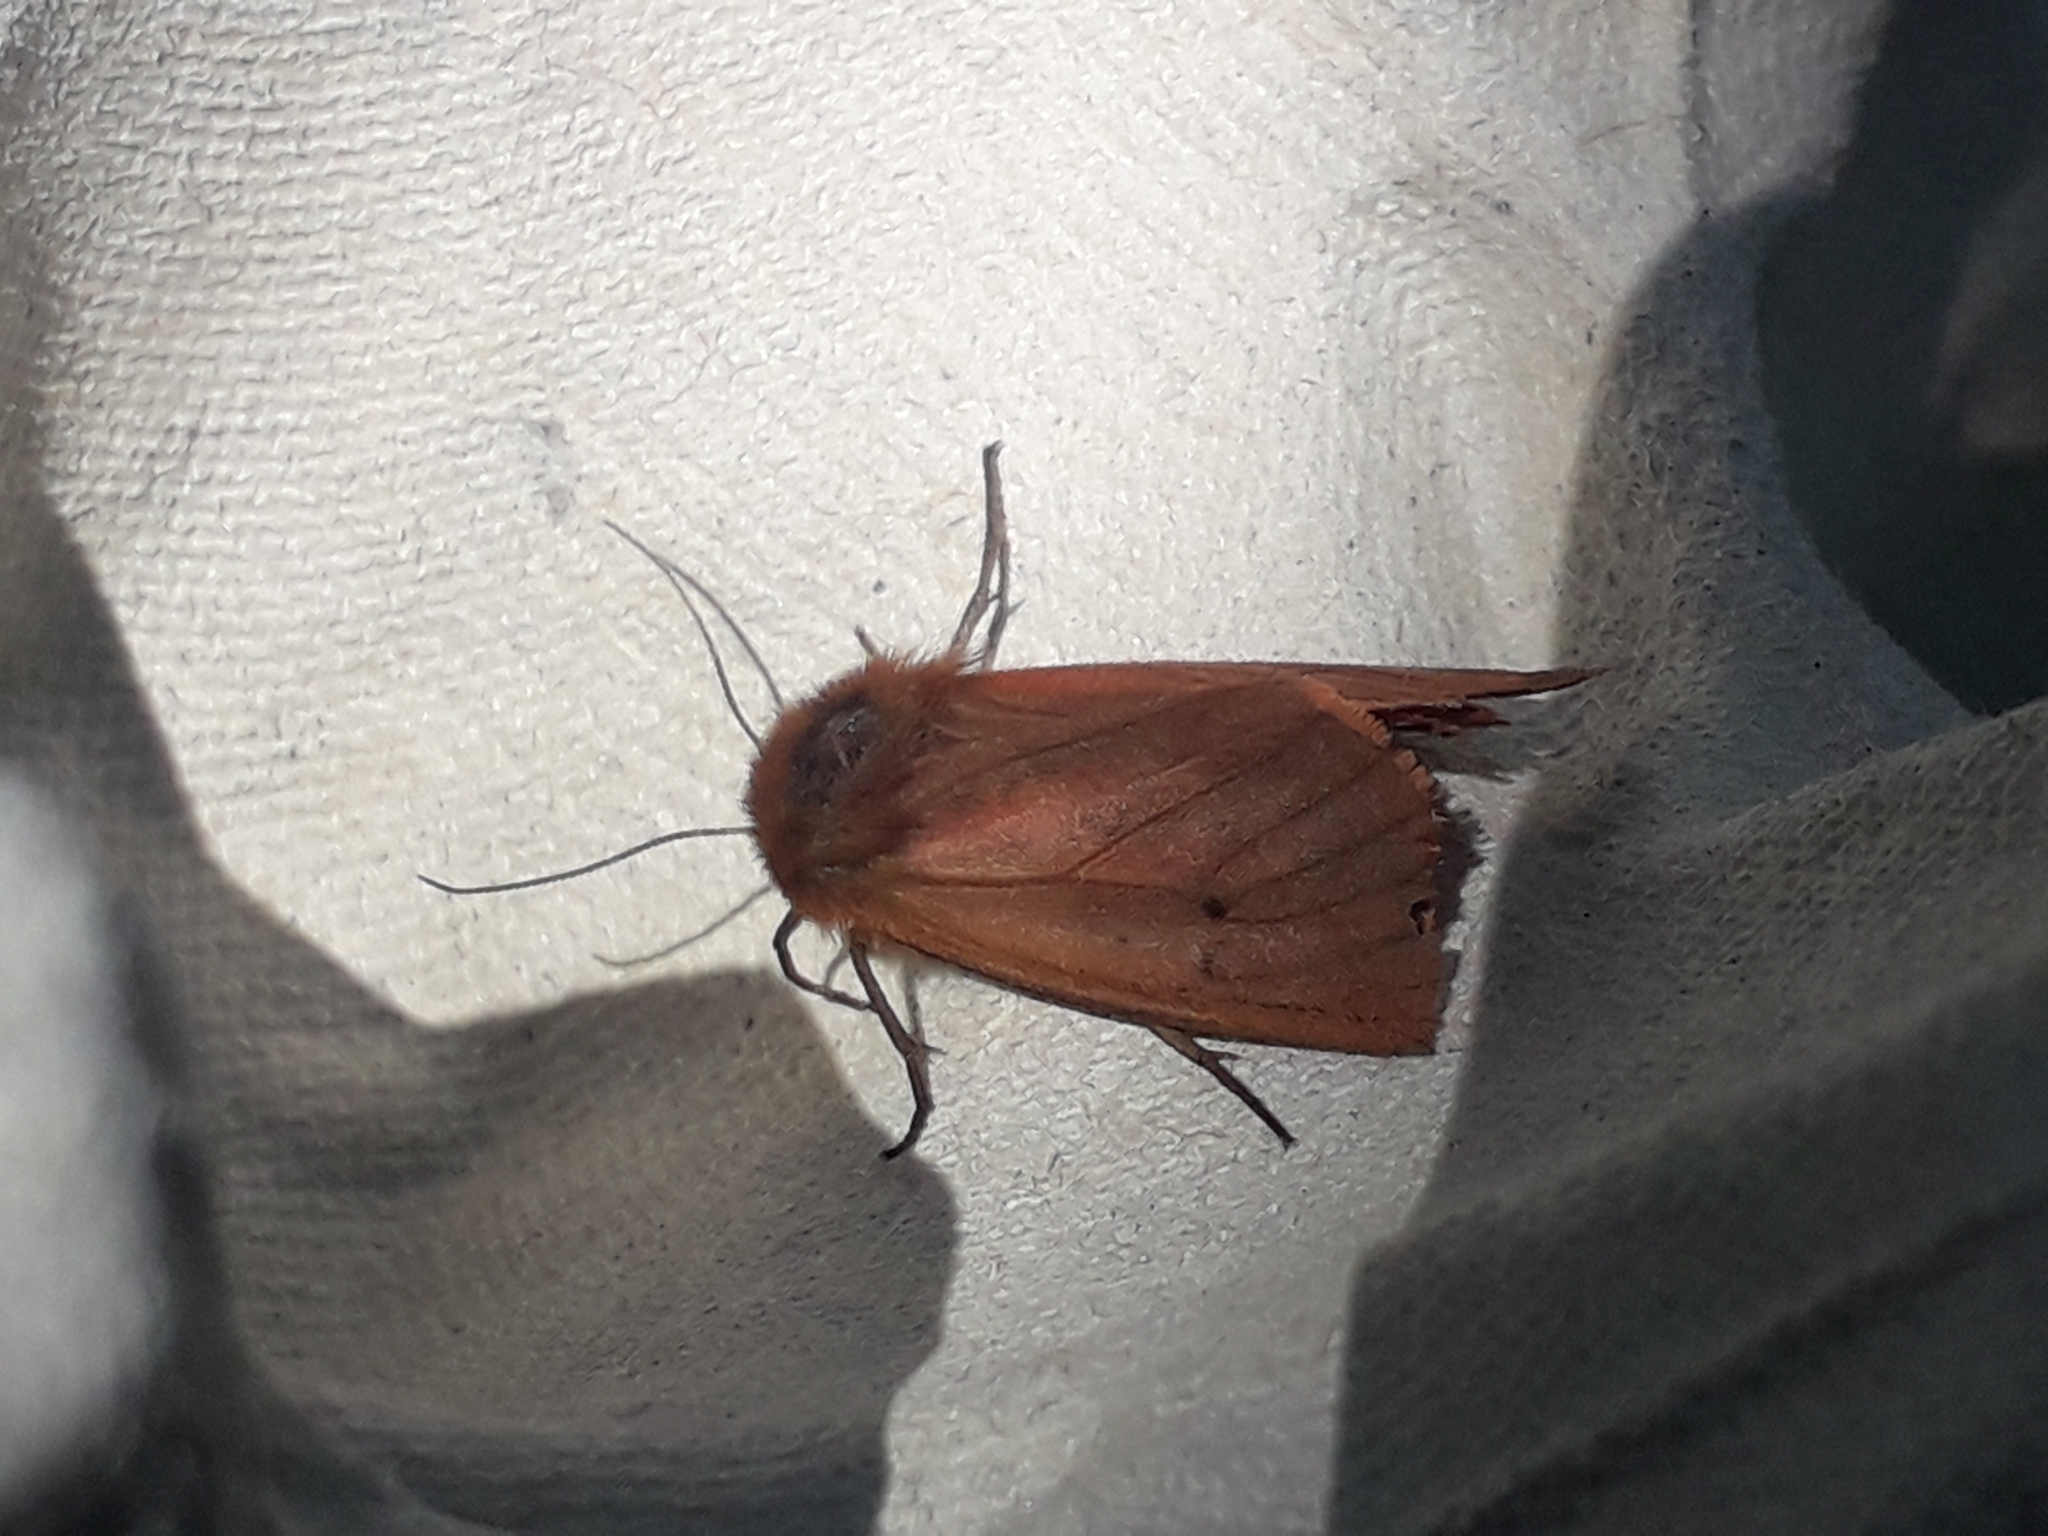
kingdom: Animalia
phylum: Arthropoda
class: Insecta
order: Lepidoptera
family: Erebidae
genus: Phragmatobia
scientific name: Phragmatobia fuliginosa
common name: Ruby tiger
